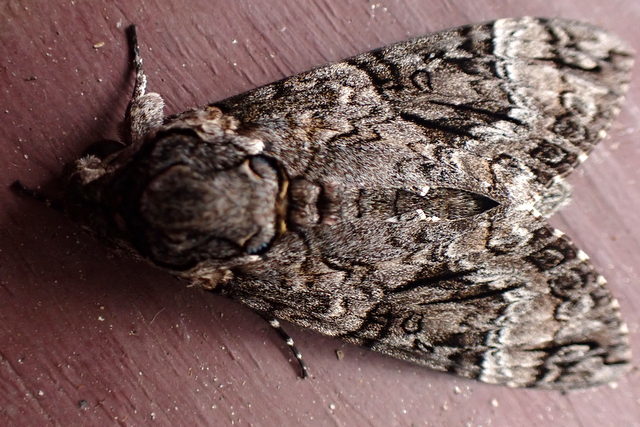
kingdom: Animalia
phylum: Arthropoda
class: Insecta
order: Lepidoptera
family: Sphingidae
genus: Agrius
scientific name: Agrius cingulata
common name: Pink-spotted hawkmoth
